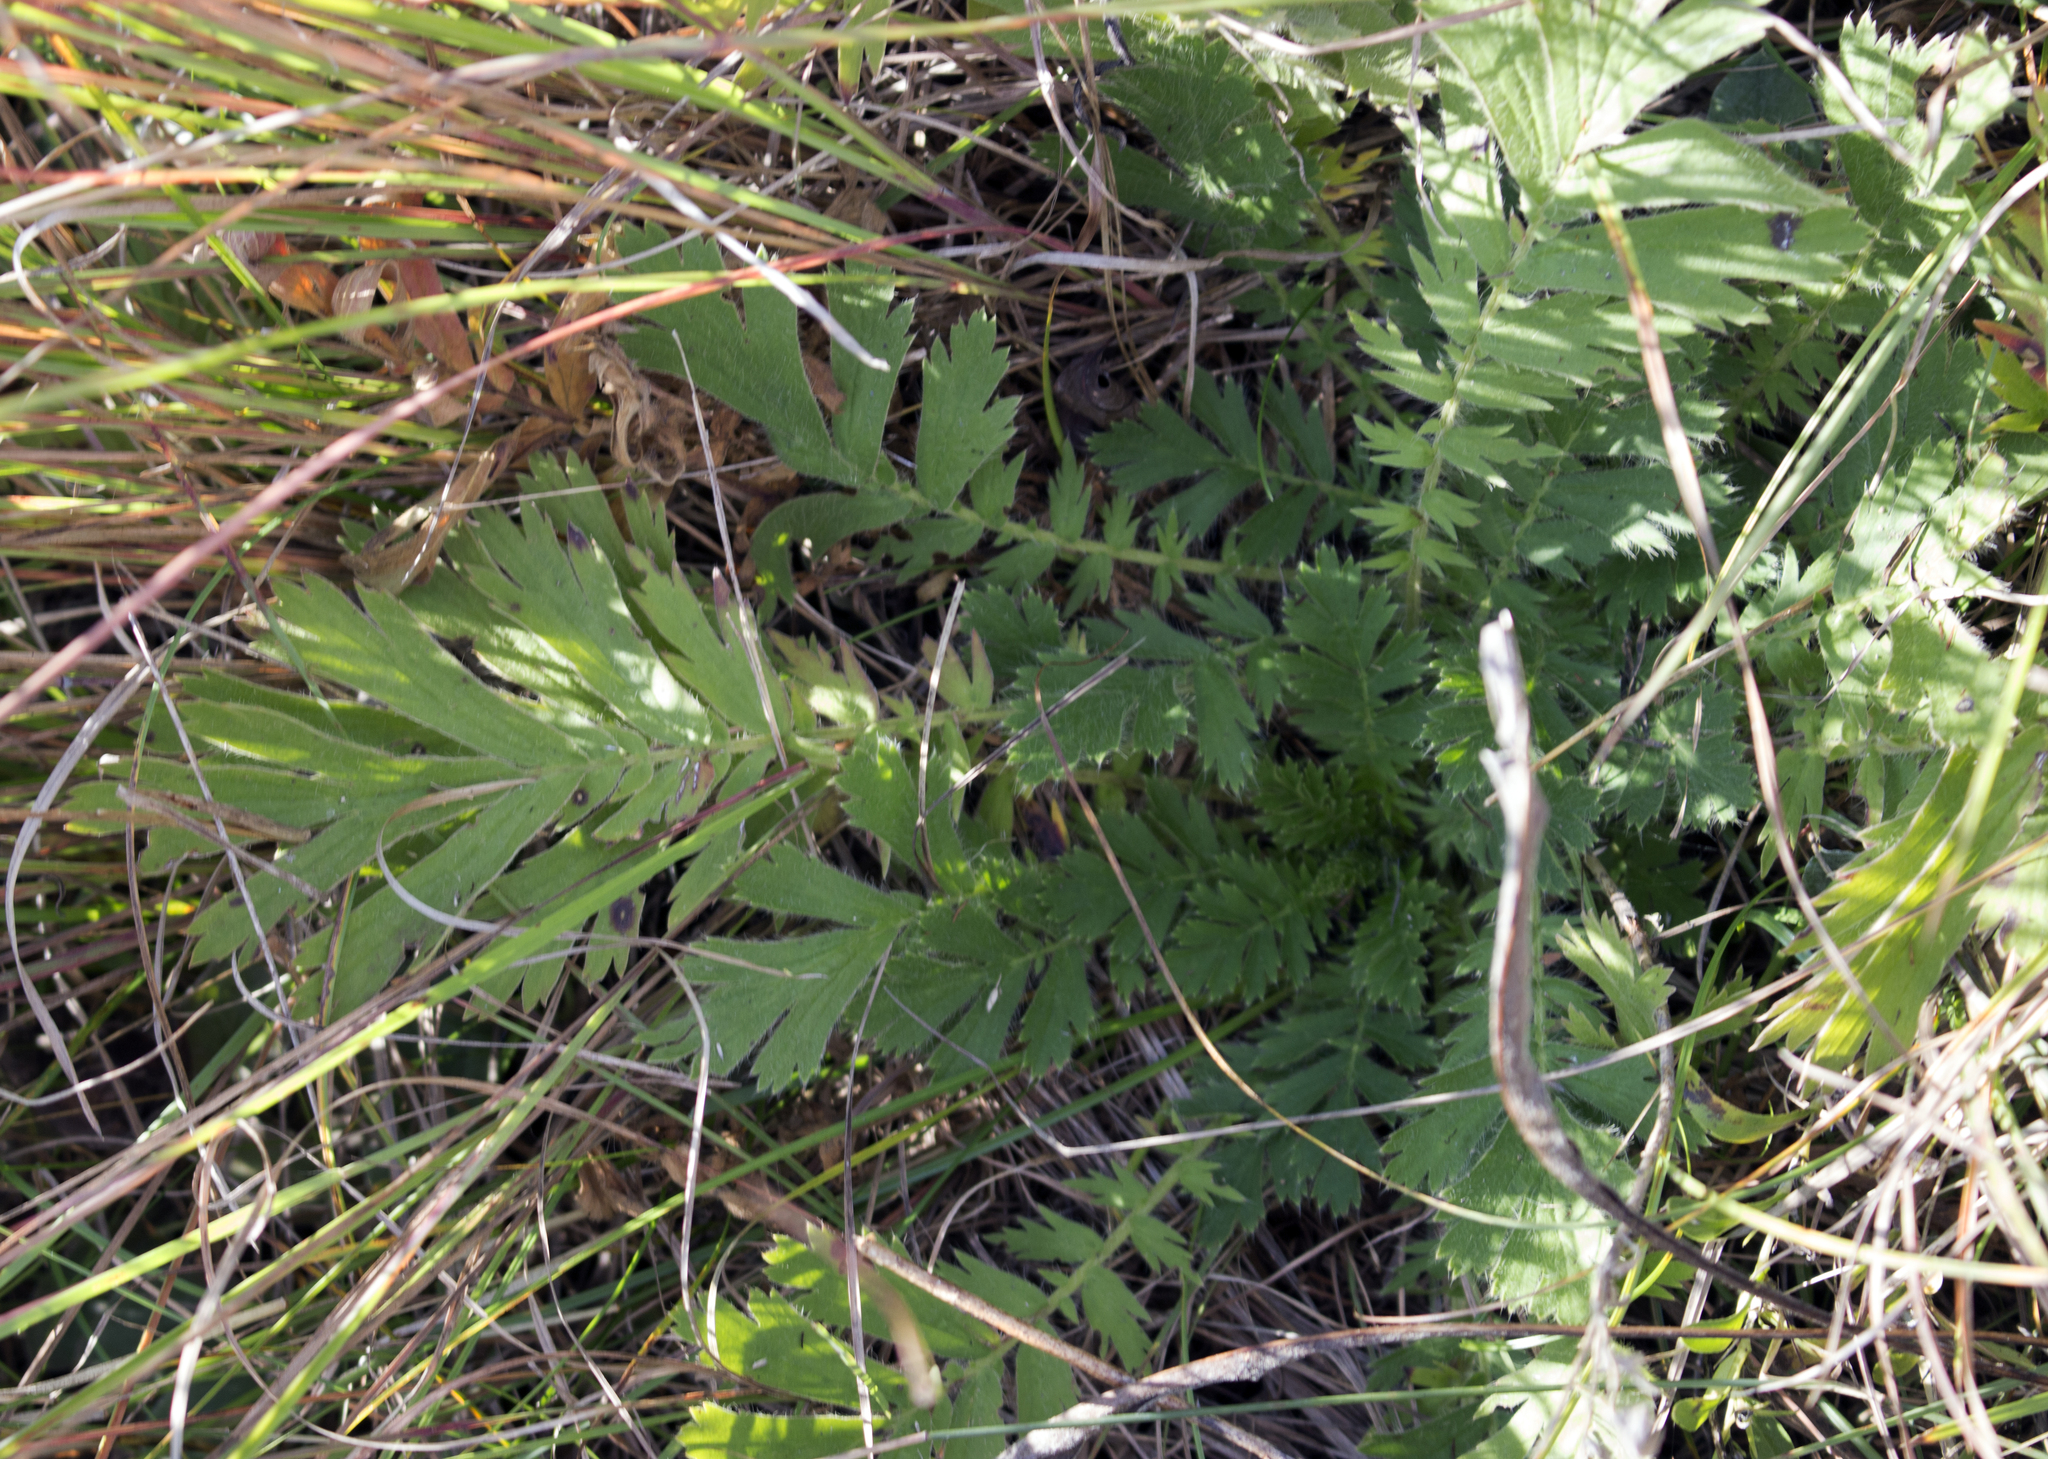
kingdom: Plantae
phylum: Tracheophyta
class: Magnoliopsida
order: Rosales
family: Rosaceae
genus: Geum
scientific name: Geum triflorum
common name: Old man's whiskers
